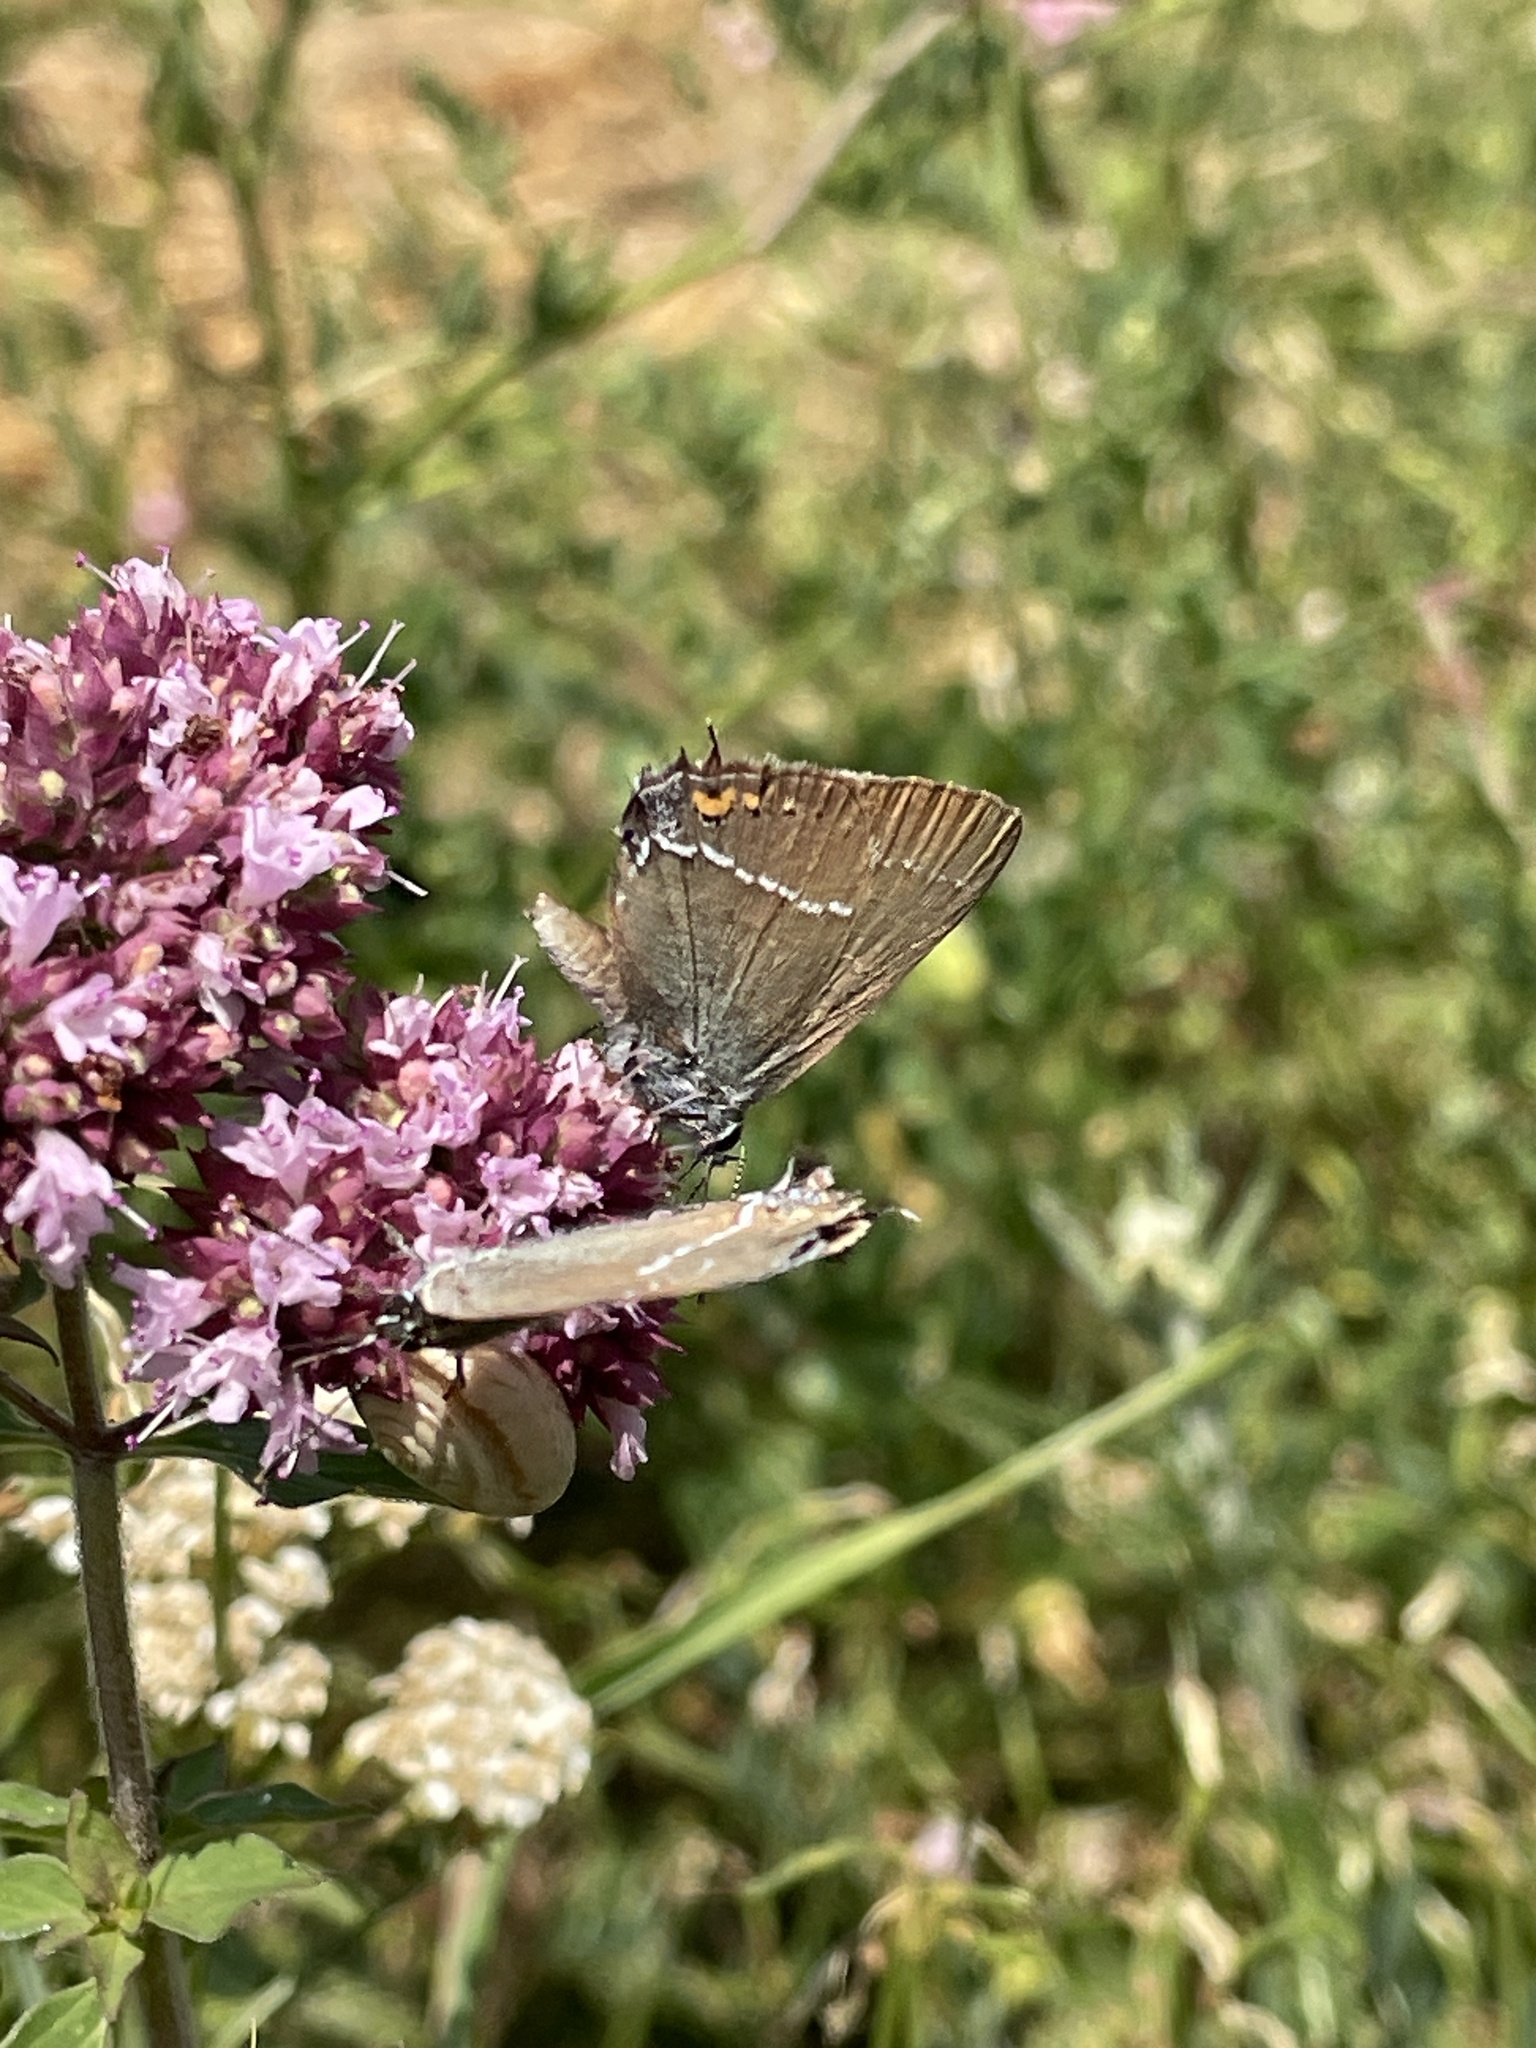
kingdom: Animalia
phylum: Arthropoda
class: Insecta
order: Lepidoptera
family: Lycaenidae
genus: Tuttiola
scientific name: Tuttiola spini
